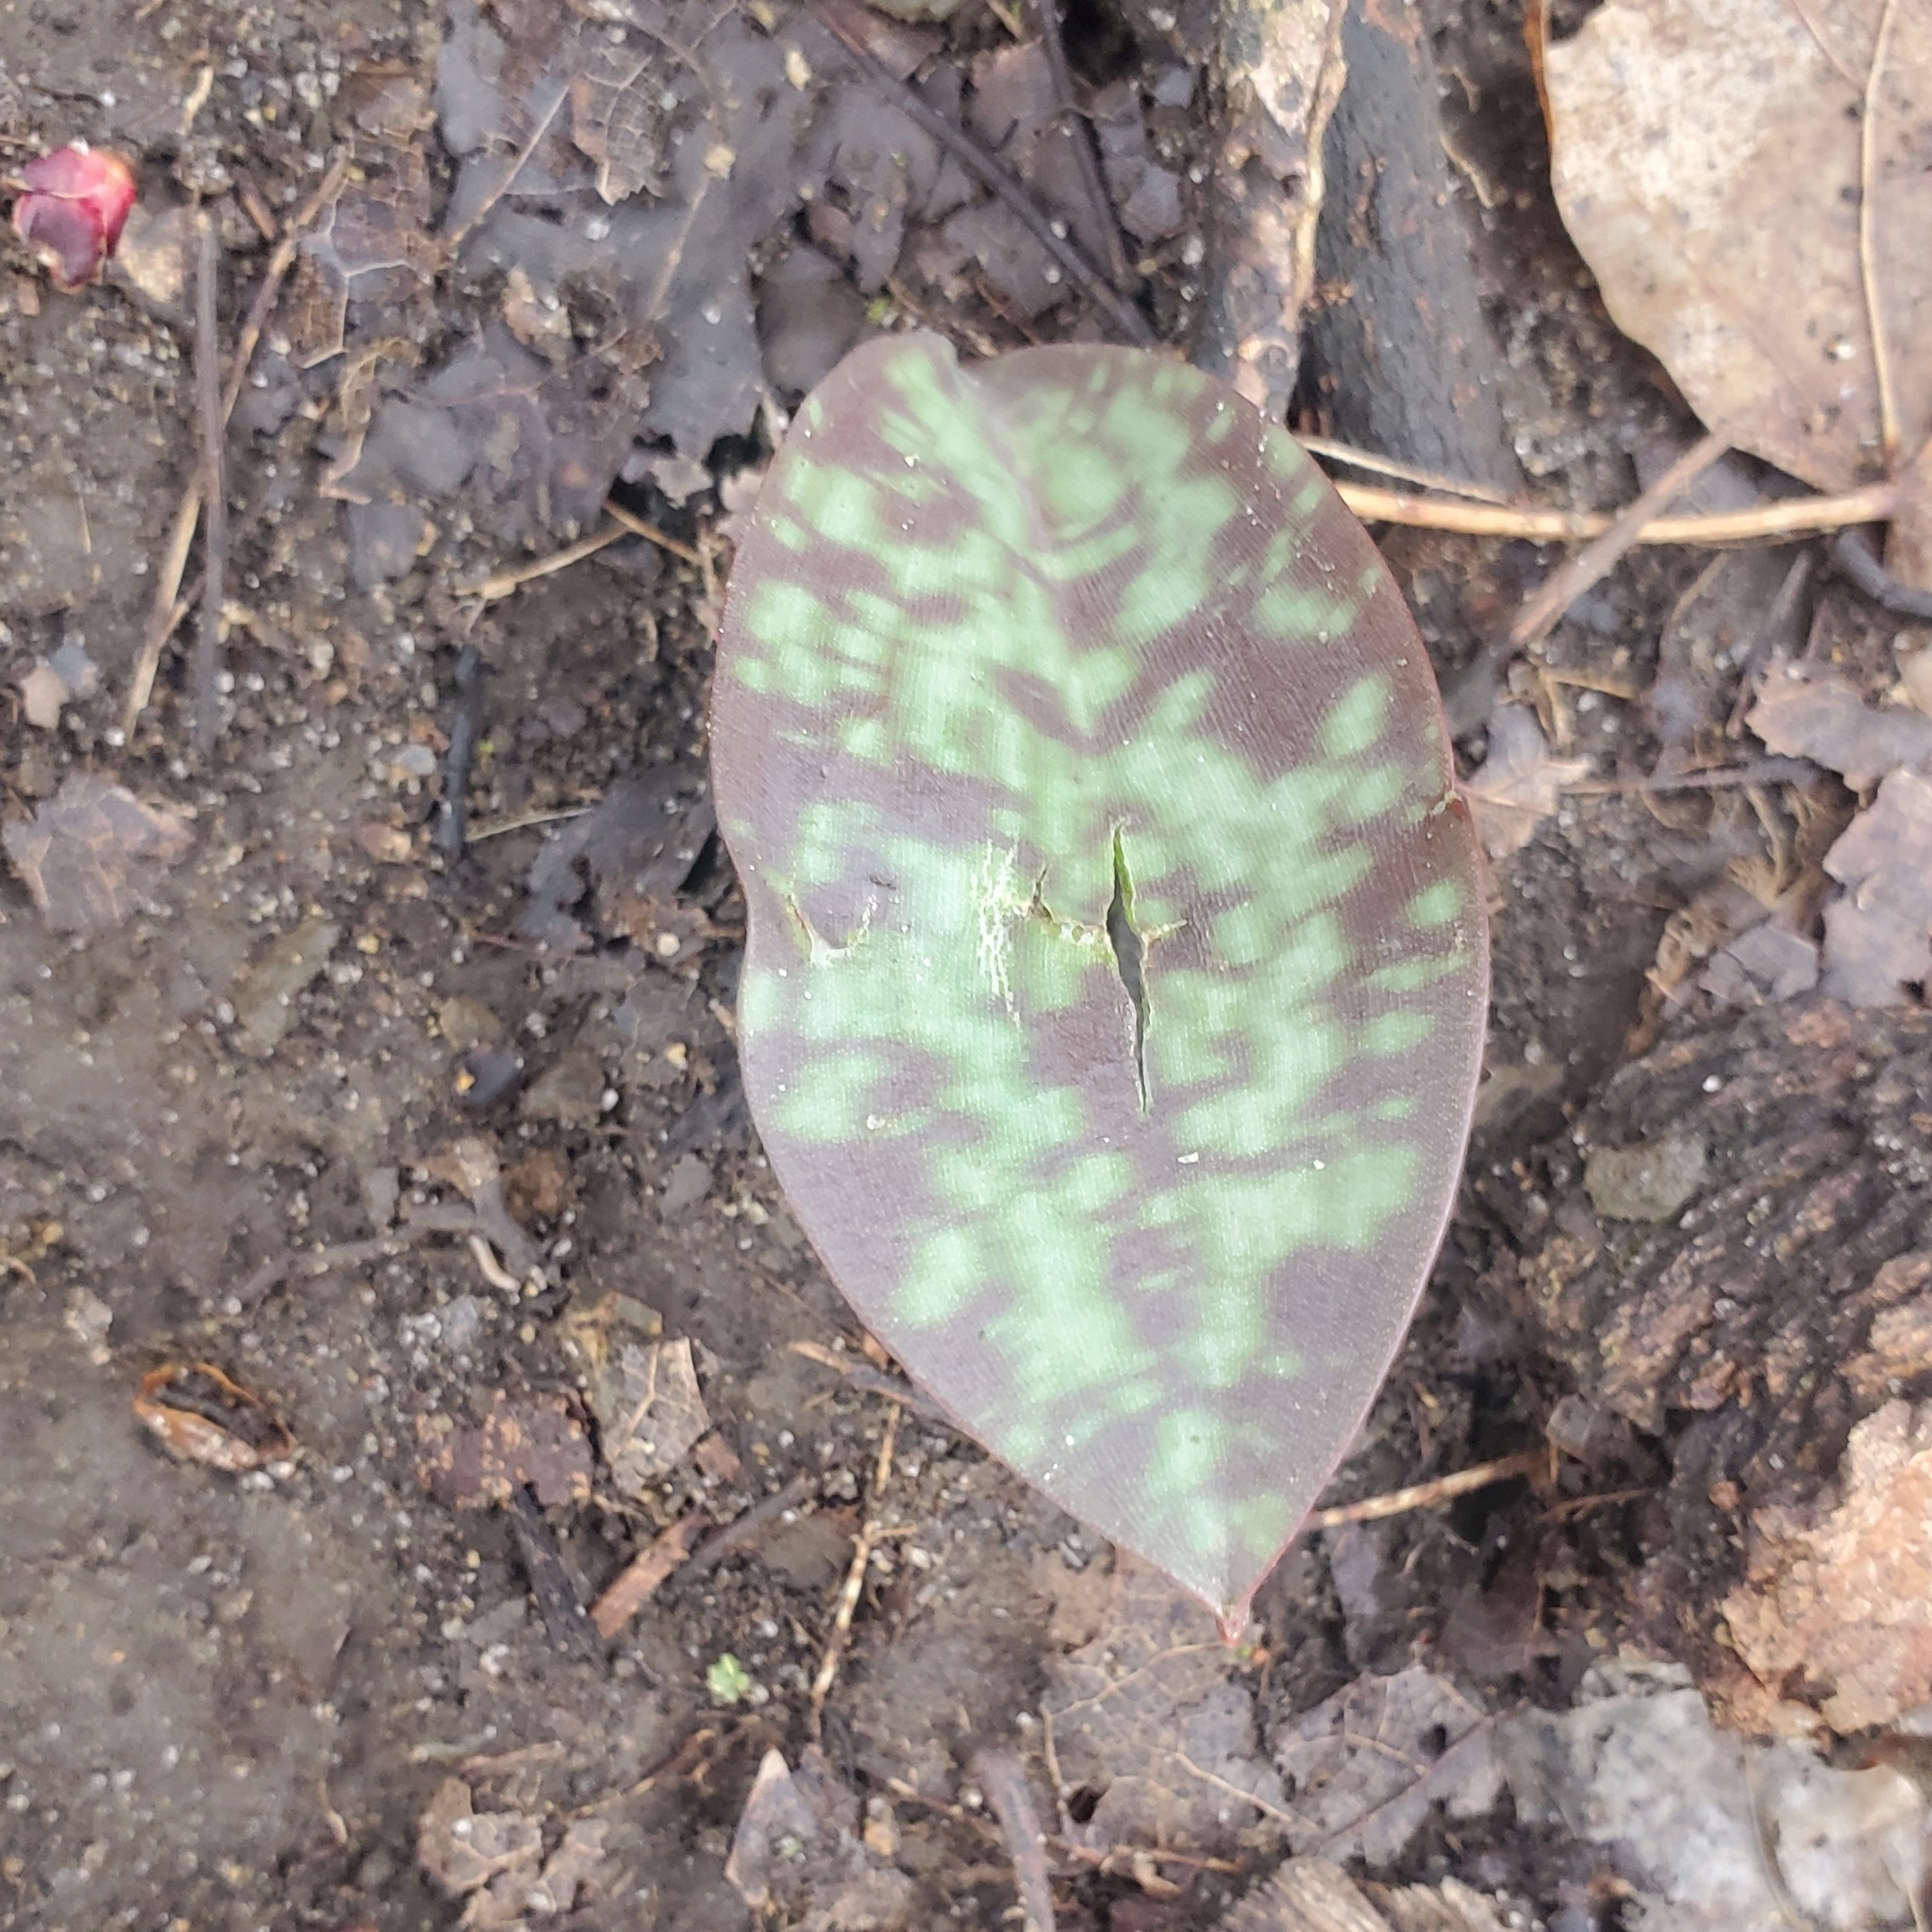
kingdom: Plantae
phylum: Tracheophyta
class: Liliopsida
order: Liliales
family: Liliaceae
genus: Erythronium
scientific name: Erythronium americanum
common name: Yellow adder's-tongue
